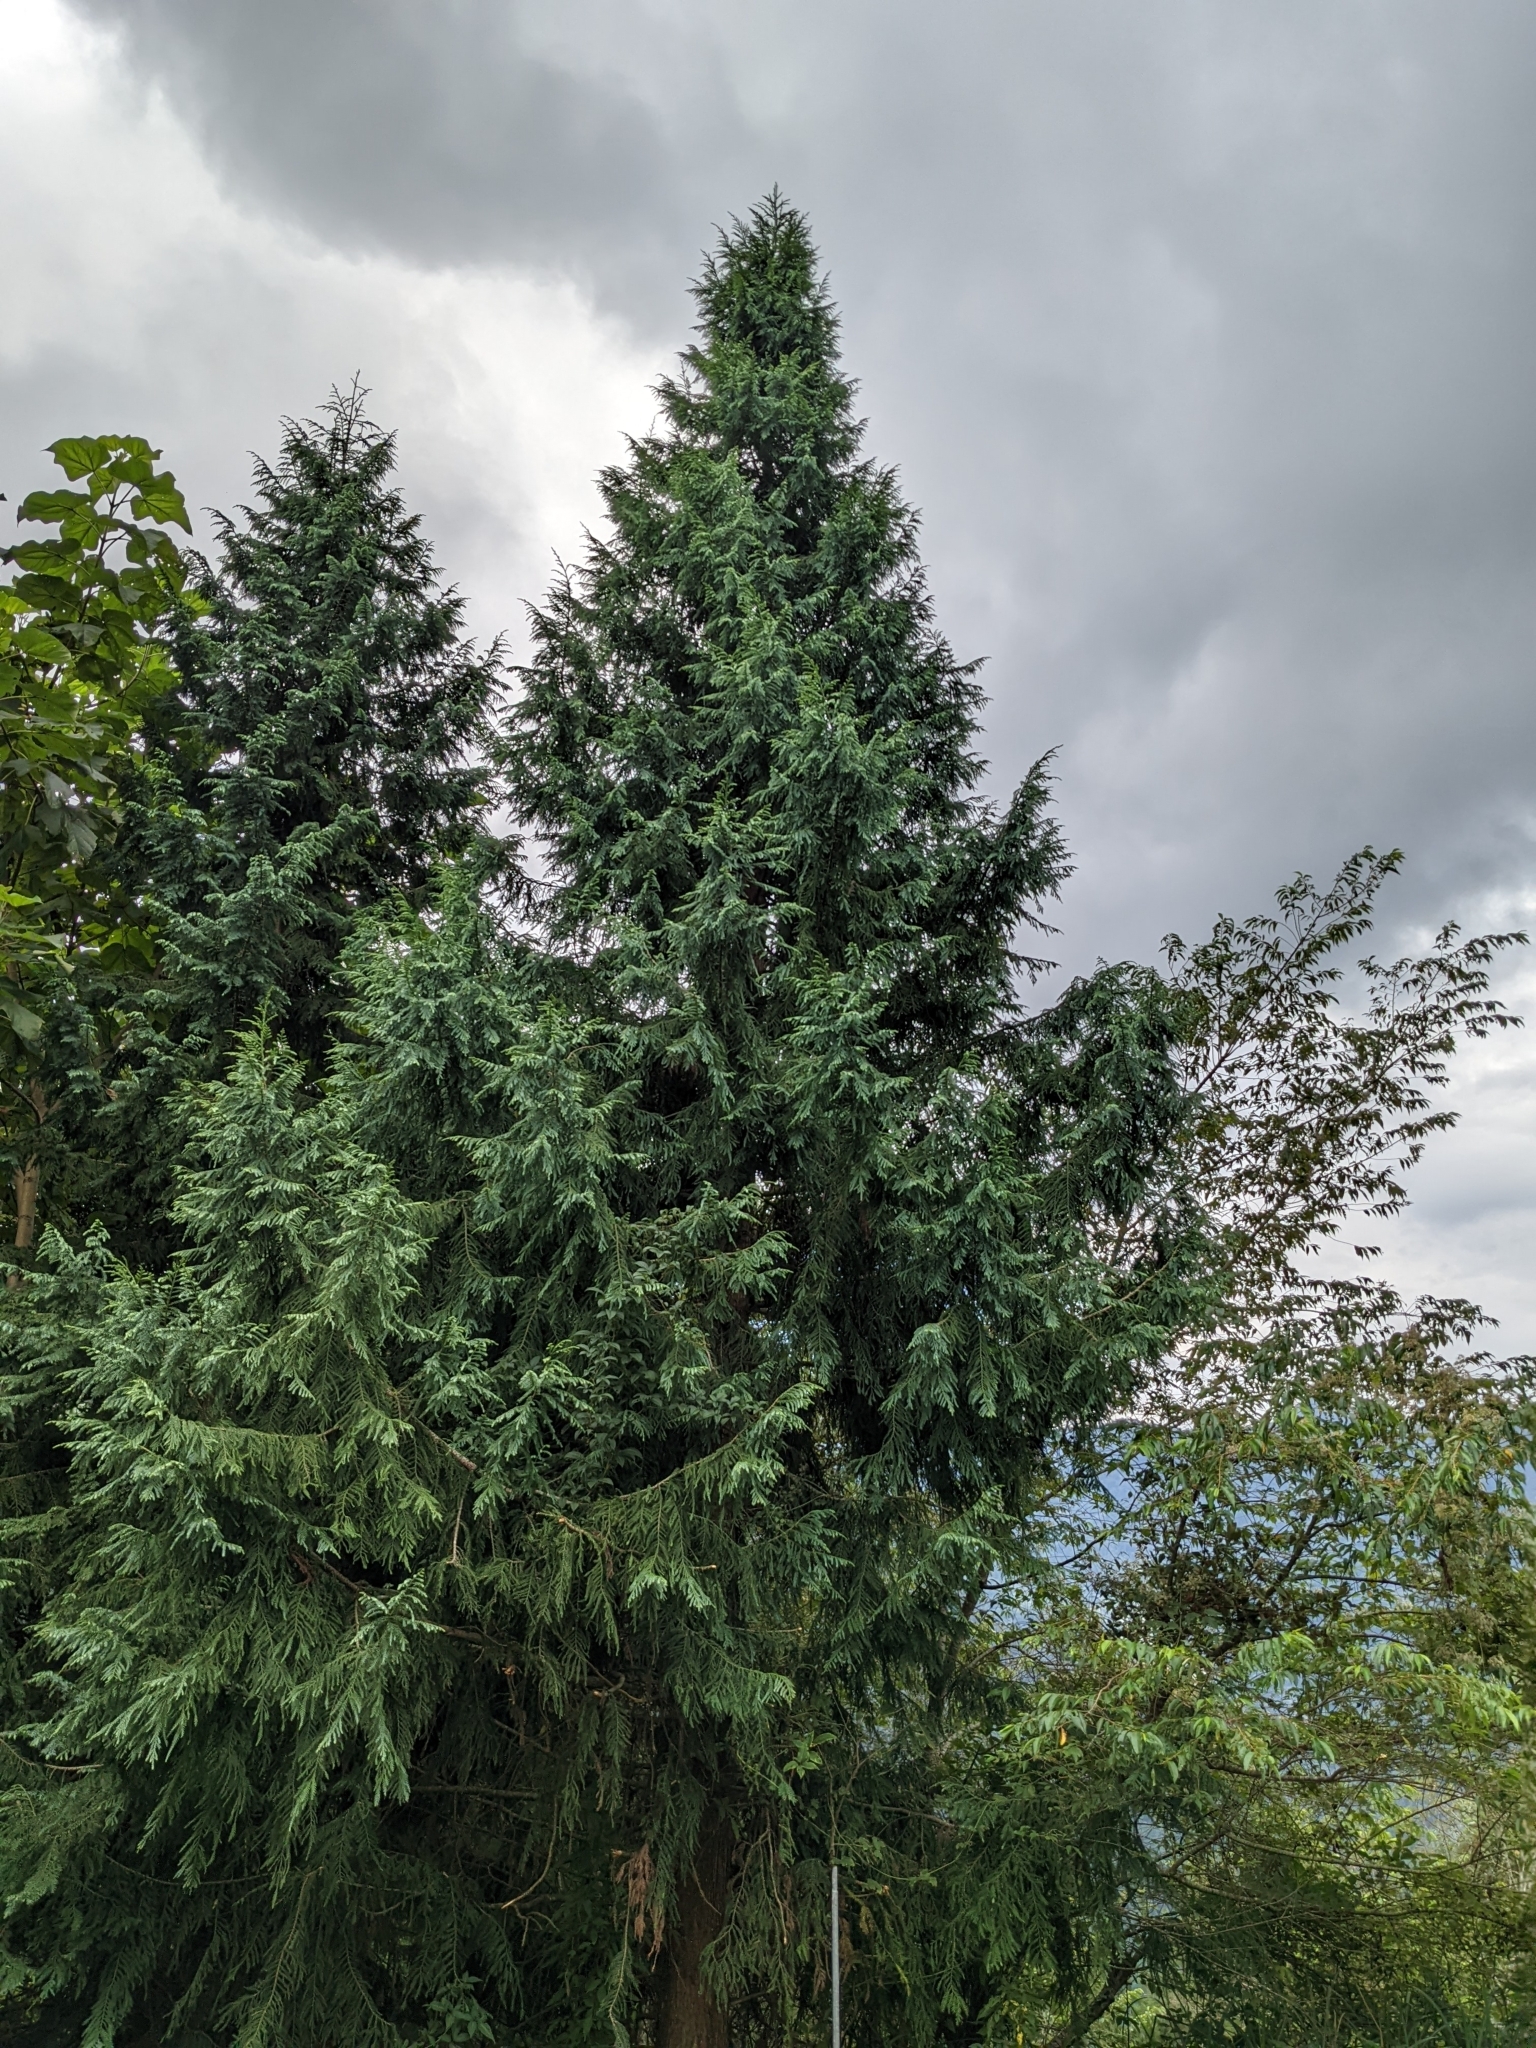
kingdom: Plantae
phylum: Tracheophyta
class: Pinopsida
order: Pinales
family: Cupressaceae
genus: Taiwania
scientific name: Taiwania cryptomerioides
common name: Coffin tree
